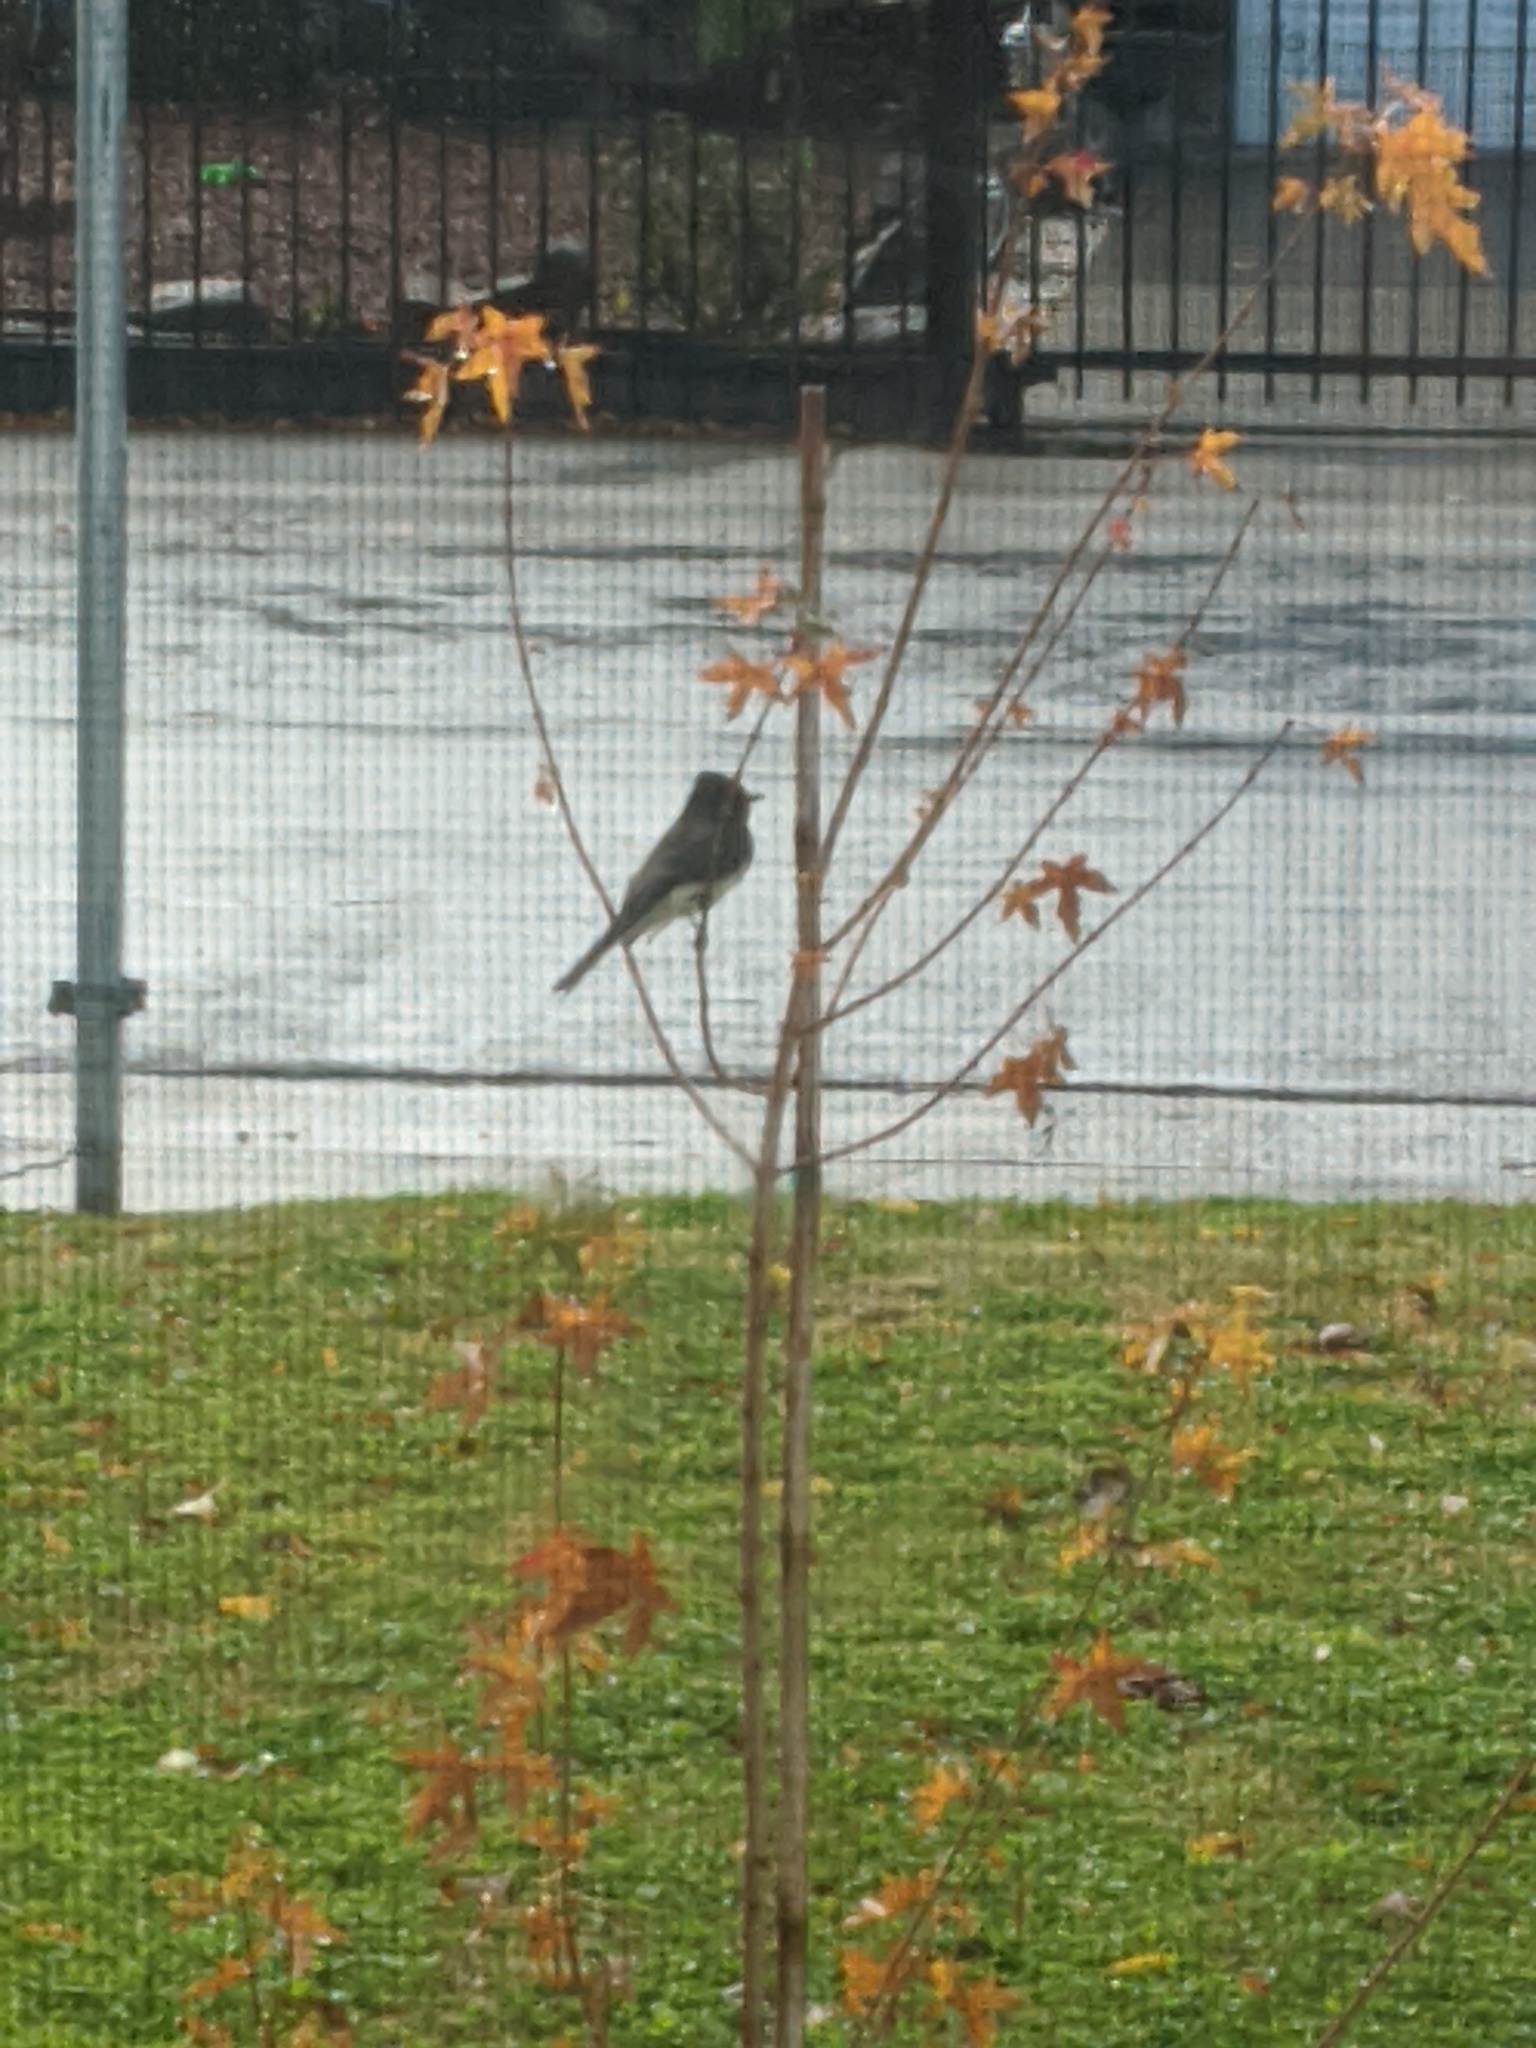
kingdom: Animalia
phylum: Chordata
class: Aves
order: Passeriformes
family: Tyrannidae
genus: Sayornis
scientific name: Sayornis nigricans
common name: Black phoebe
